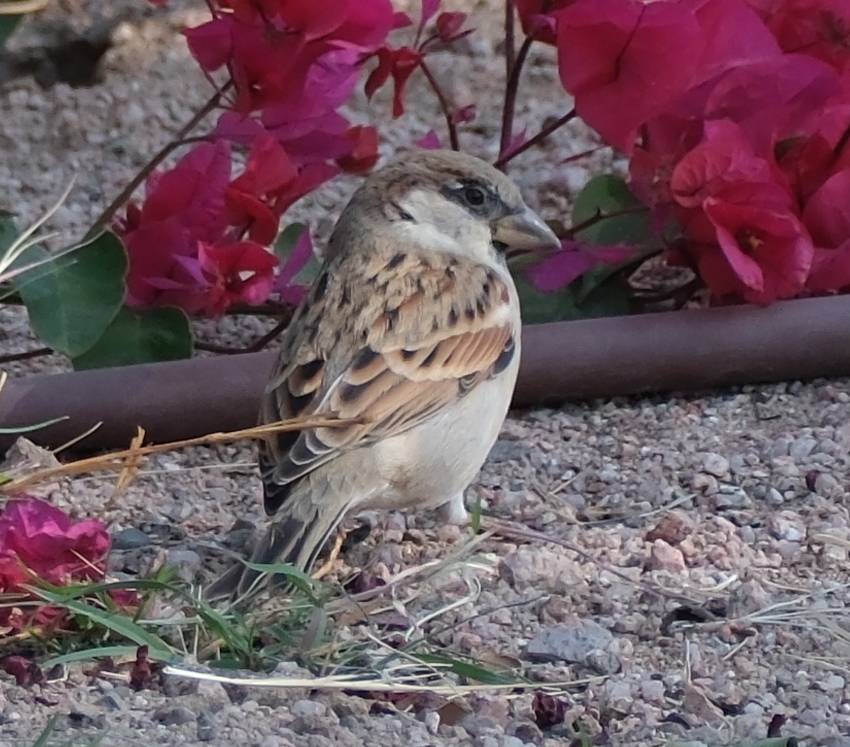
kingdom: Animalia
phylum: Chordata
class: Aves
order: Passeriformes
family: Passeridae
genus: Passer
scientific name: Passer domesticus
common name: House sparrow
